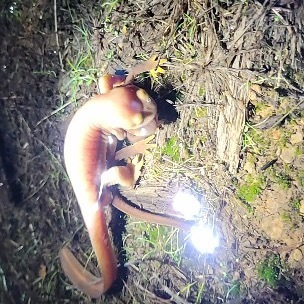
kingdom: Animalia
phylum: Chordata
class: Amphibia
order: Caudata
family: Salamandridae
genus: Taricha
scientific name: Taricha torosa
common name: California newt
